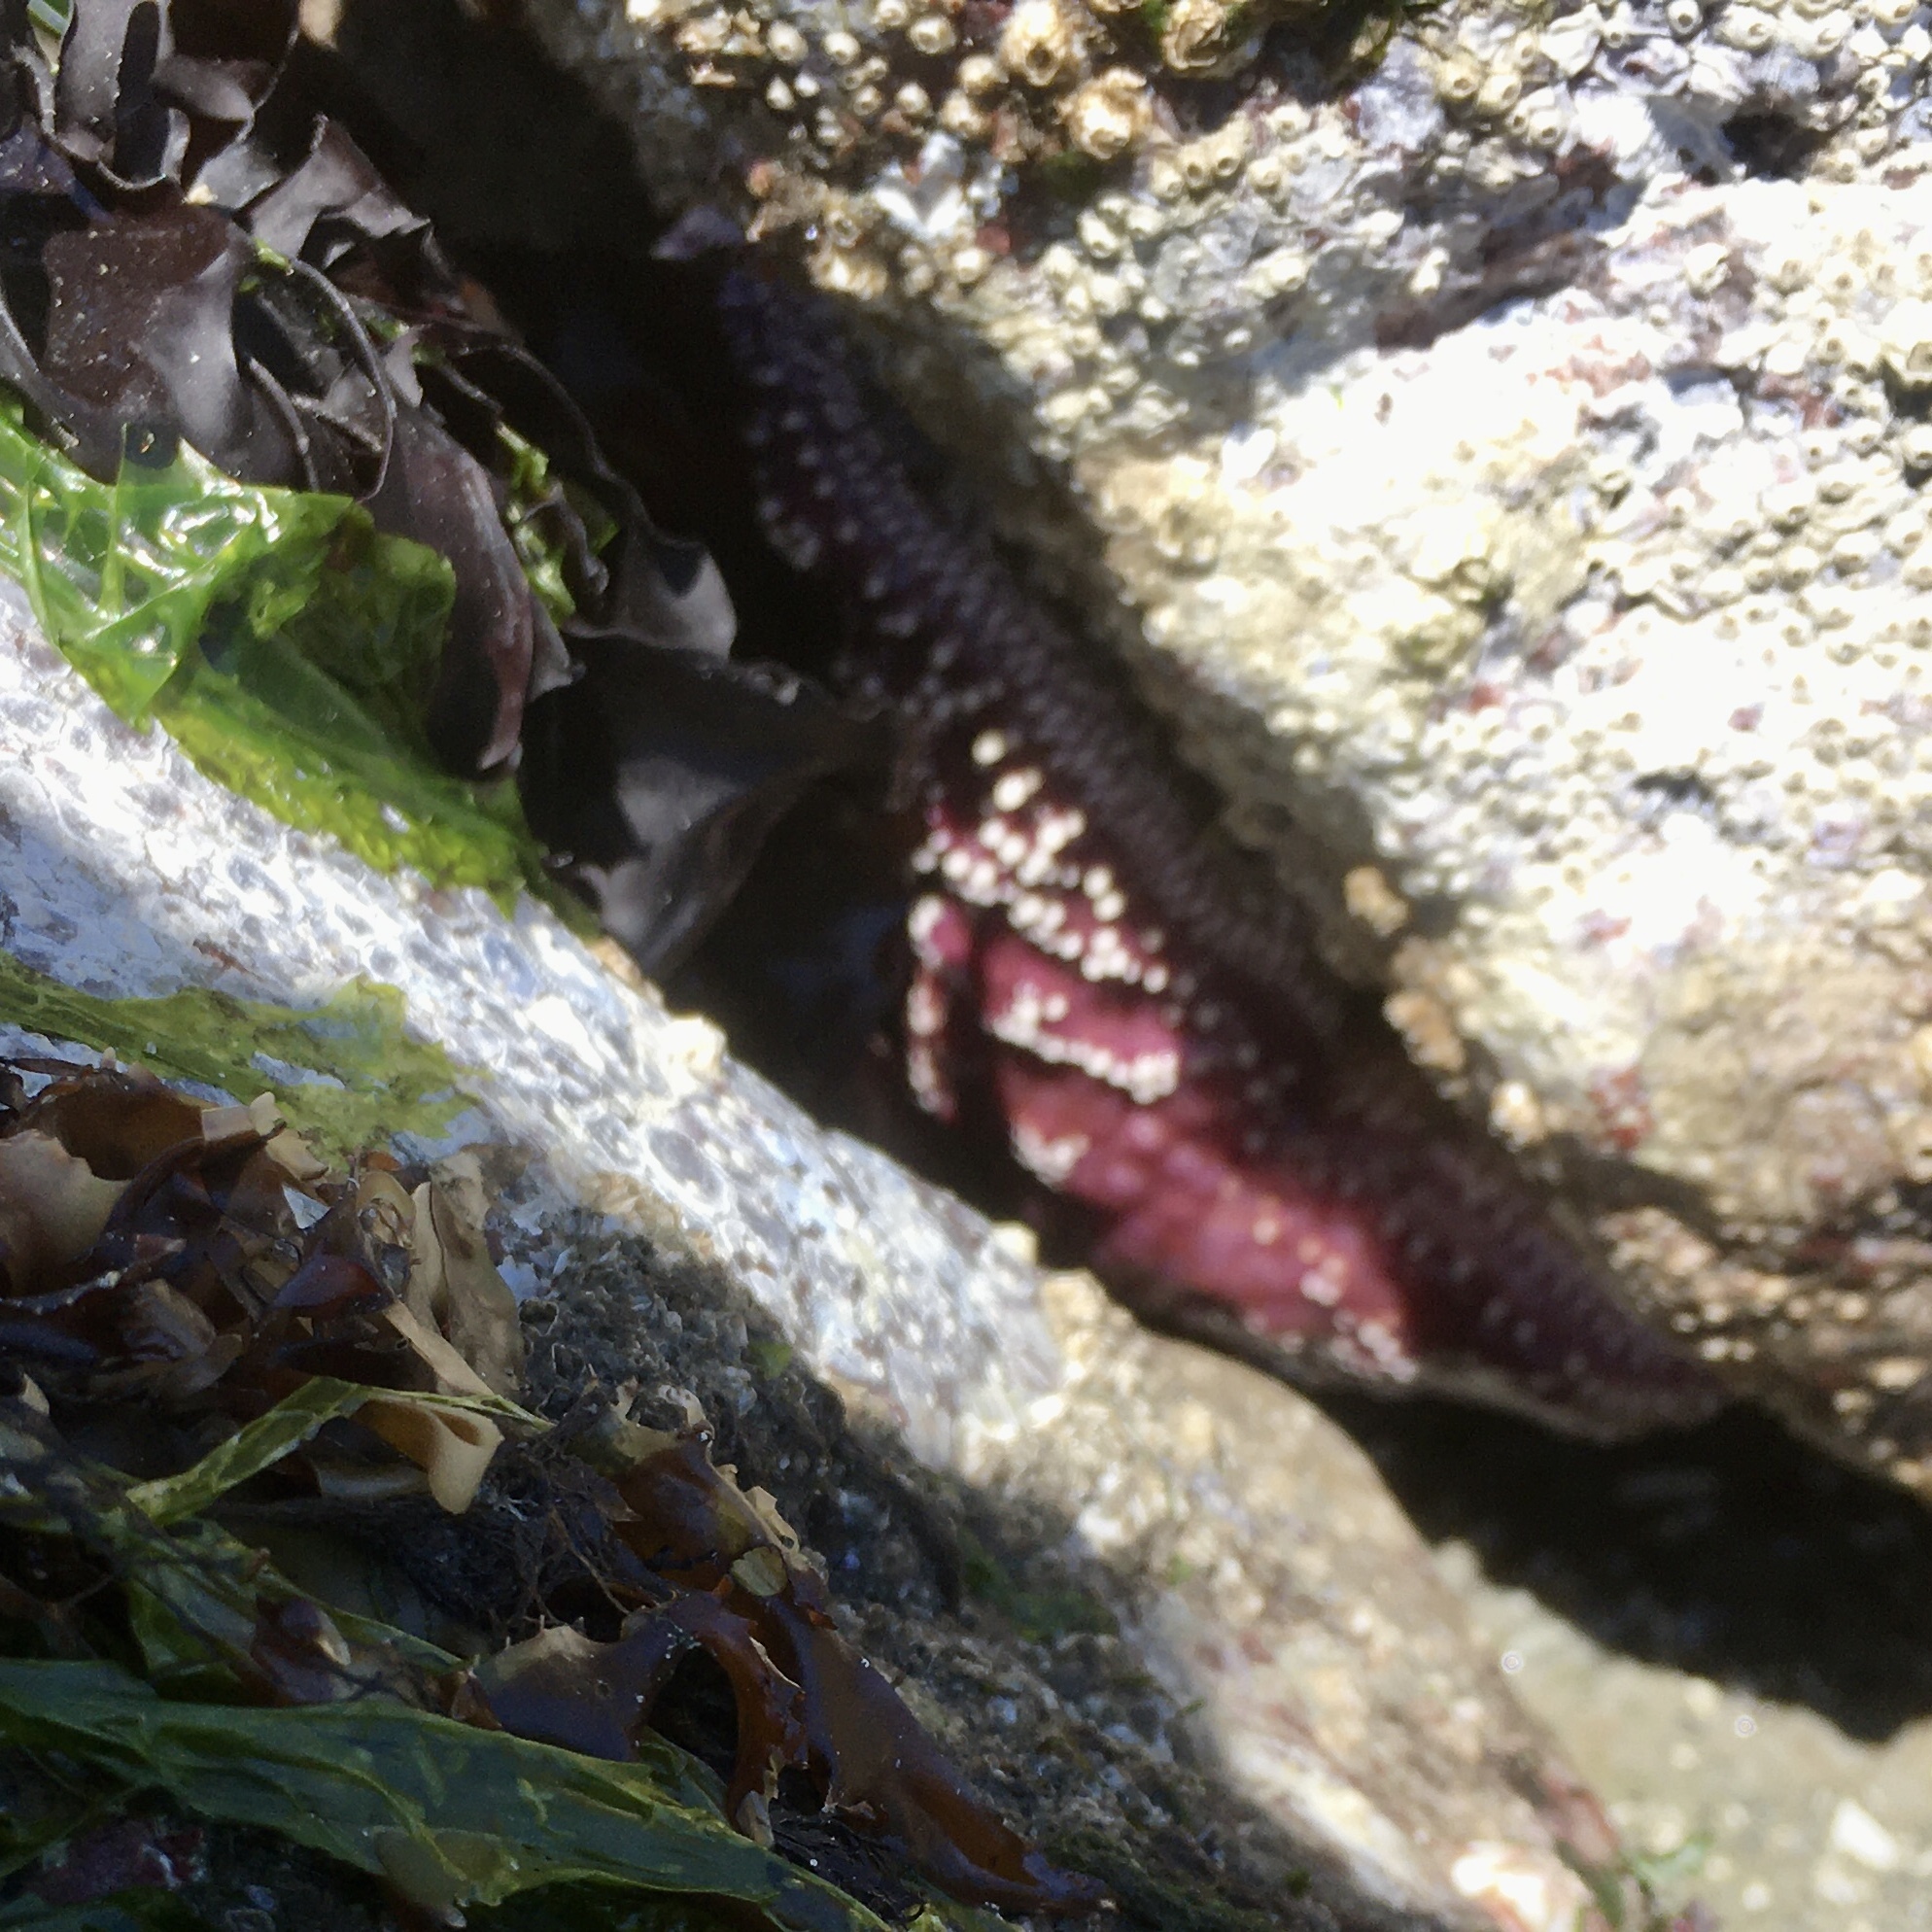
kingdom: Animalia
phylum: Echinodermata
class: Asteroidea
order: Forcipulatida
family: Asteriidae
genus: Pisaster
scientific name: Pisaster ochraceus
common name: Ochre stars
